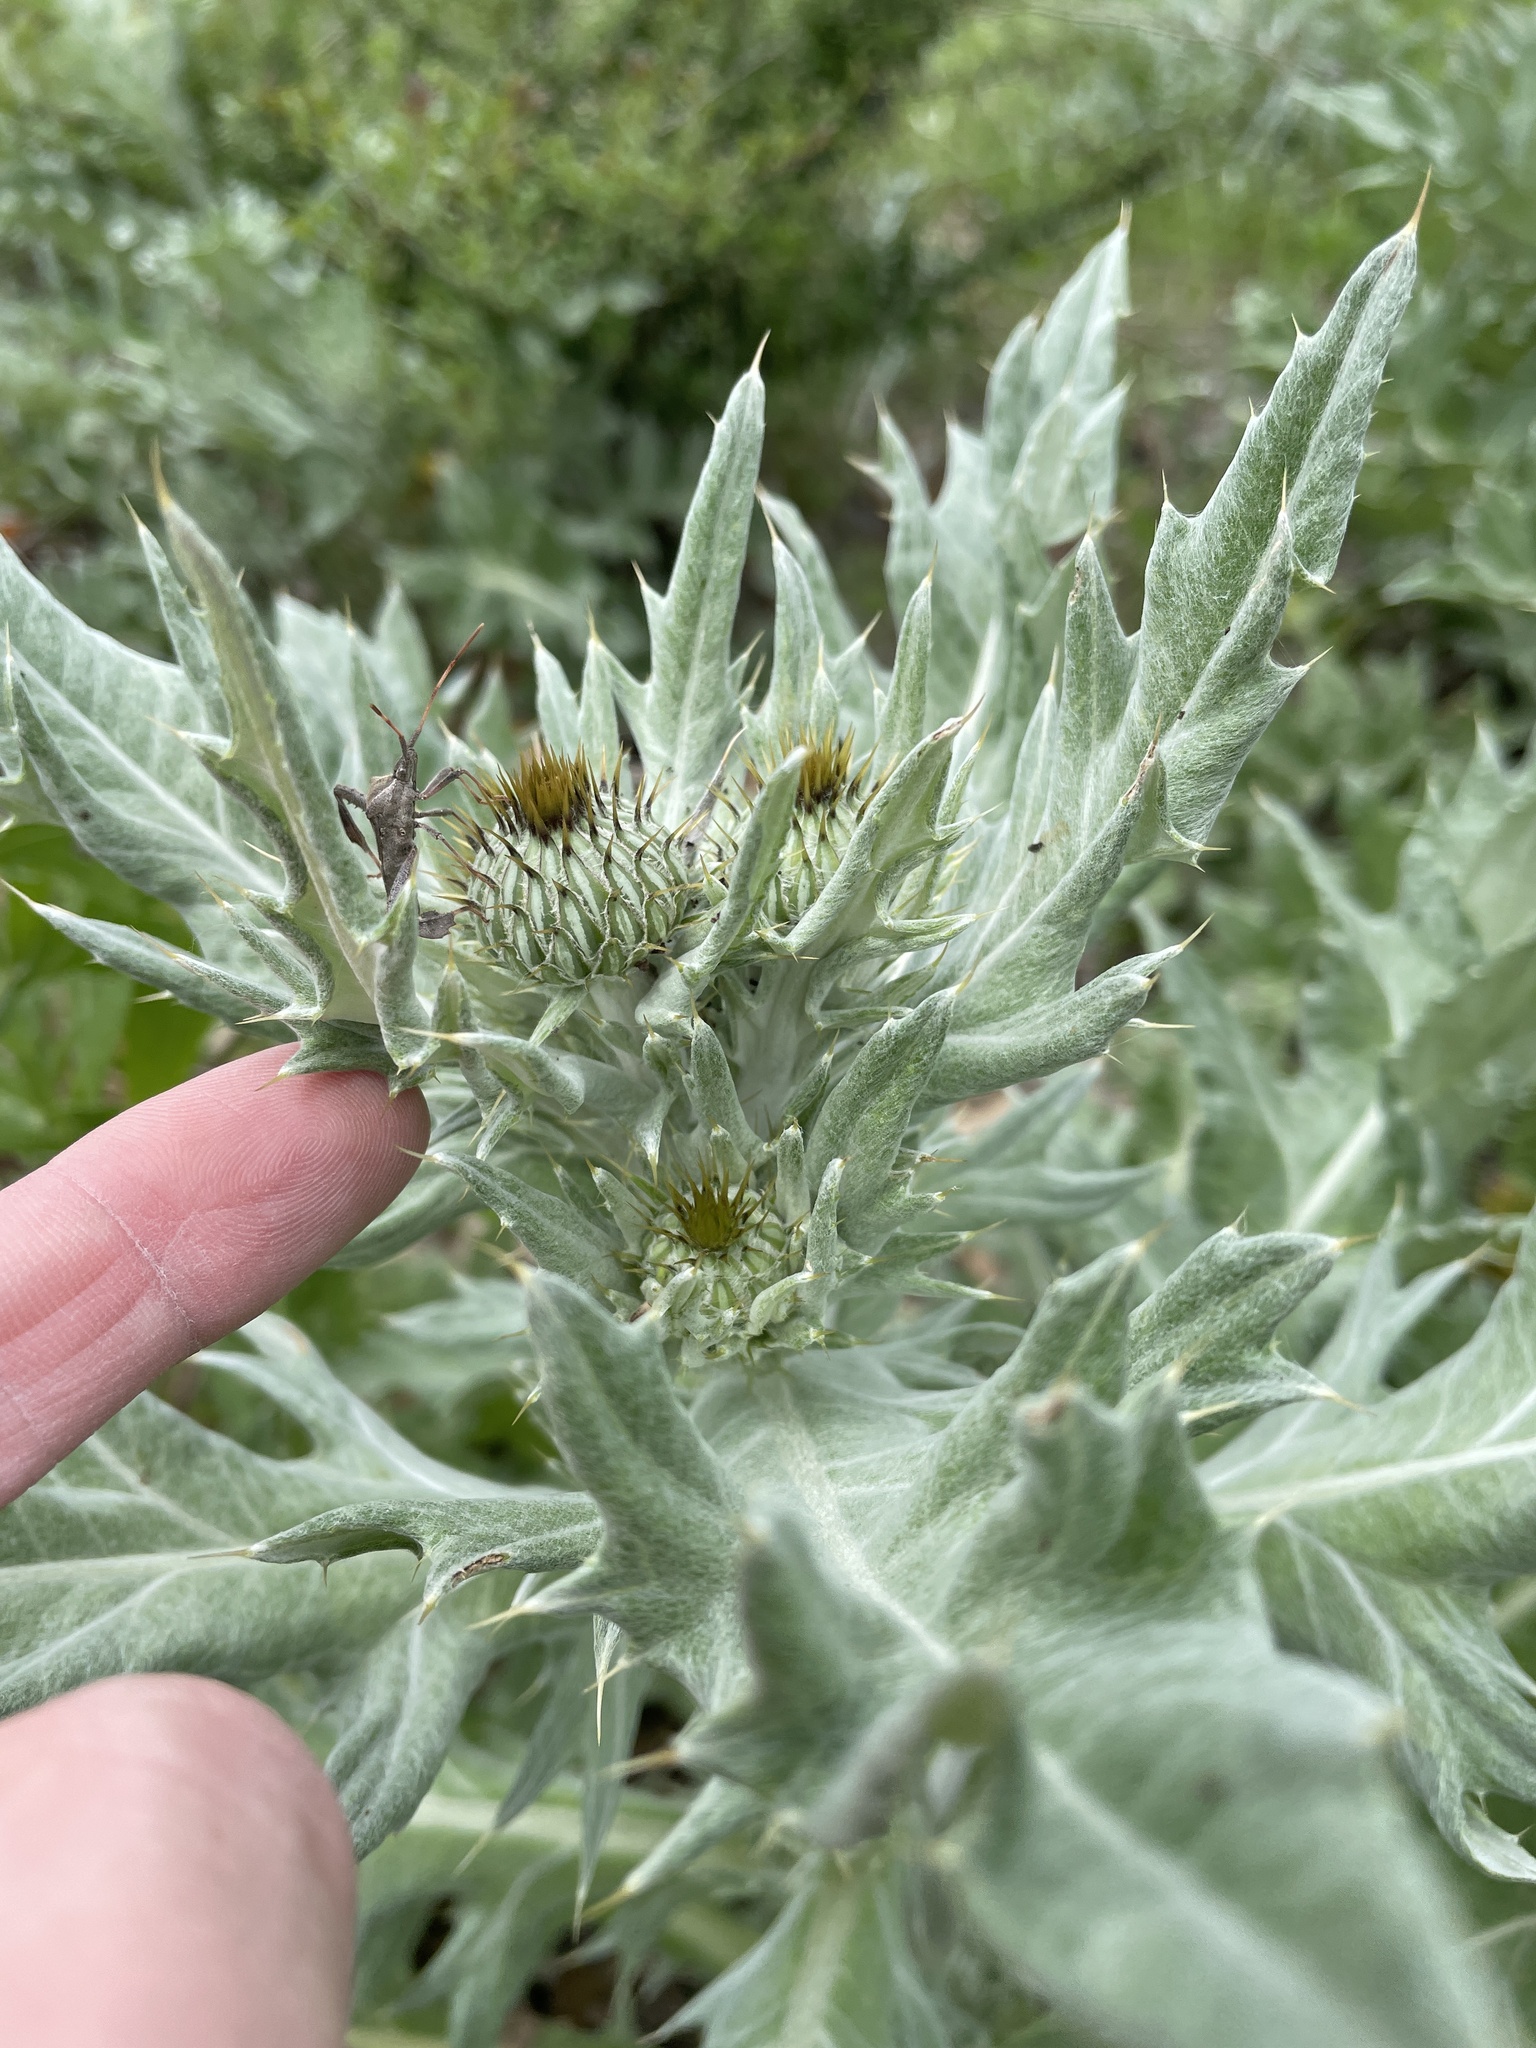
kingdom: Plantae
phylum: Tracheophyta
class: Magnoliopsida
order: Asterales
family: Asteraceae
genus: Cirsium
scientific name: Cirsium undulatum
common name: Pasture thistle
